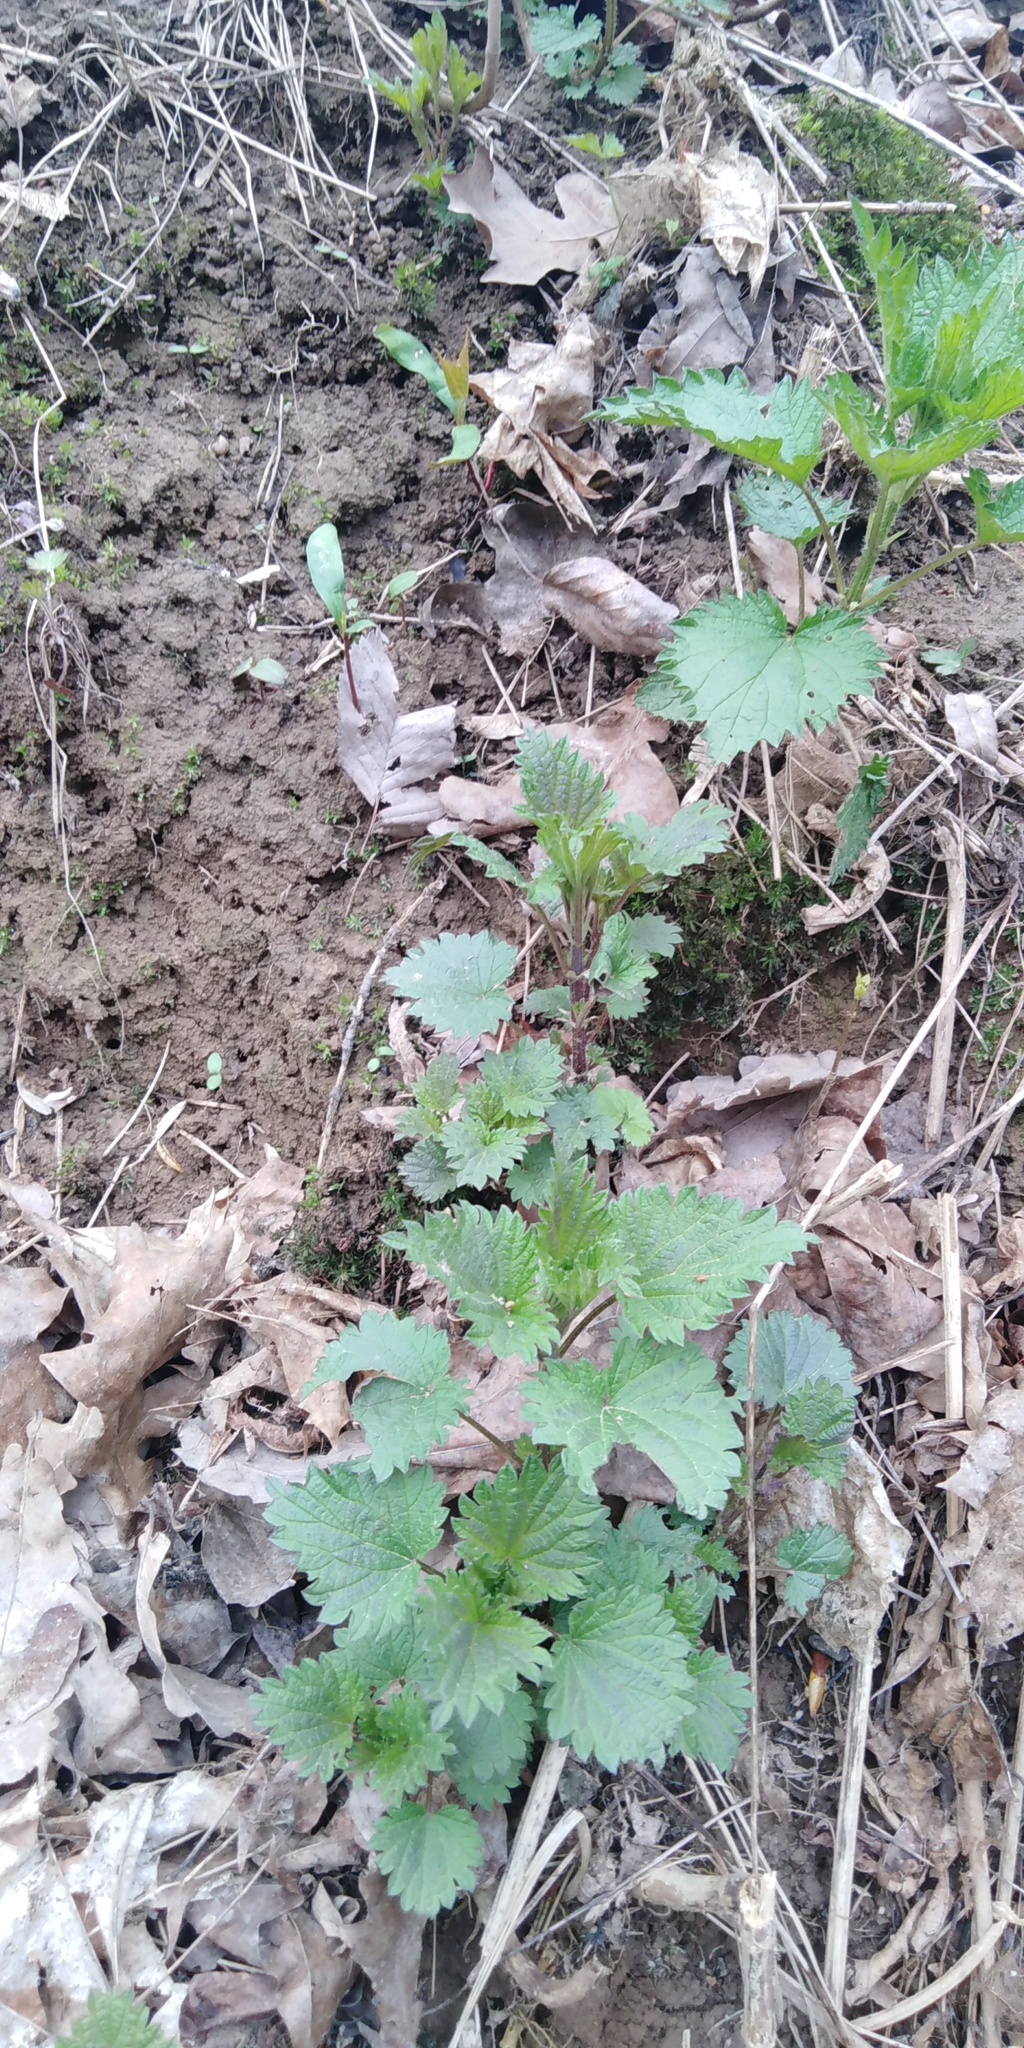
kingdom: Plantae
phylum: Tracheophyta
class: Magnoliopsida
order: Rosales
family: Urticaceae
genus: Urtica
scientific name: Urtica dioica
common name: Common nettle
